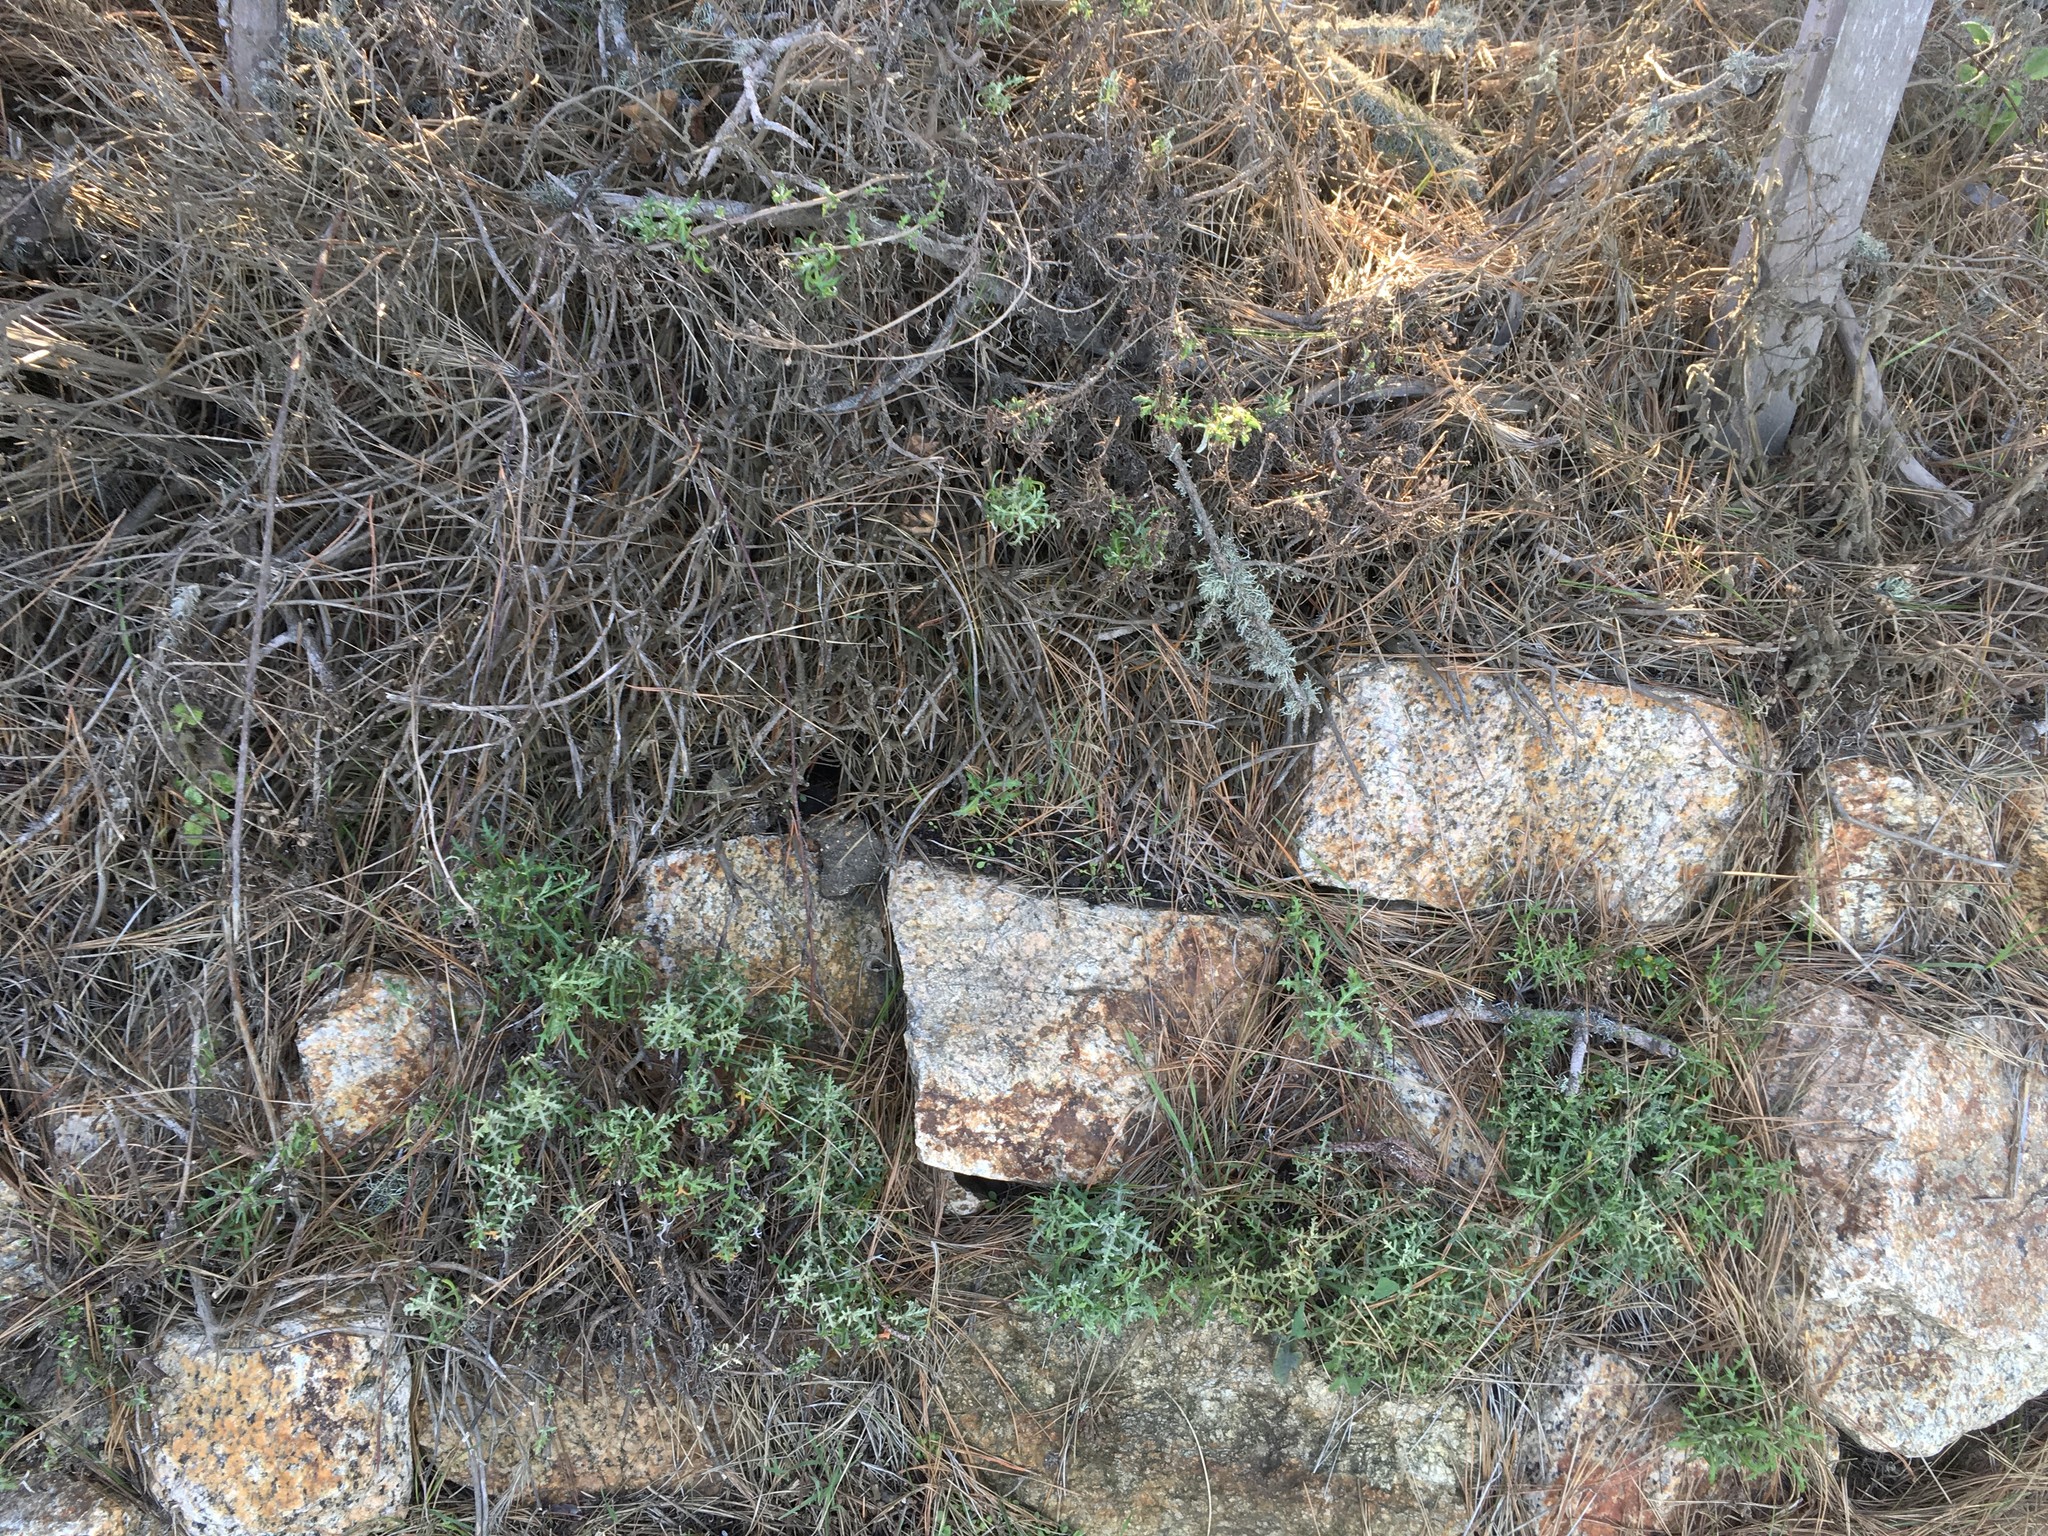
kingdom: Plantae
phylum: Tracheophyta
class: Magnoliopsida
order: Asterales
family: Asteraceae
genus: Eriophyllum
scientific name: Eriophyllum staechadifolium
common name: Lizardtail
